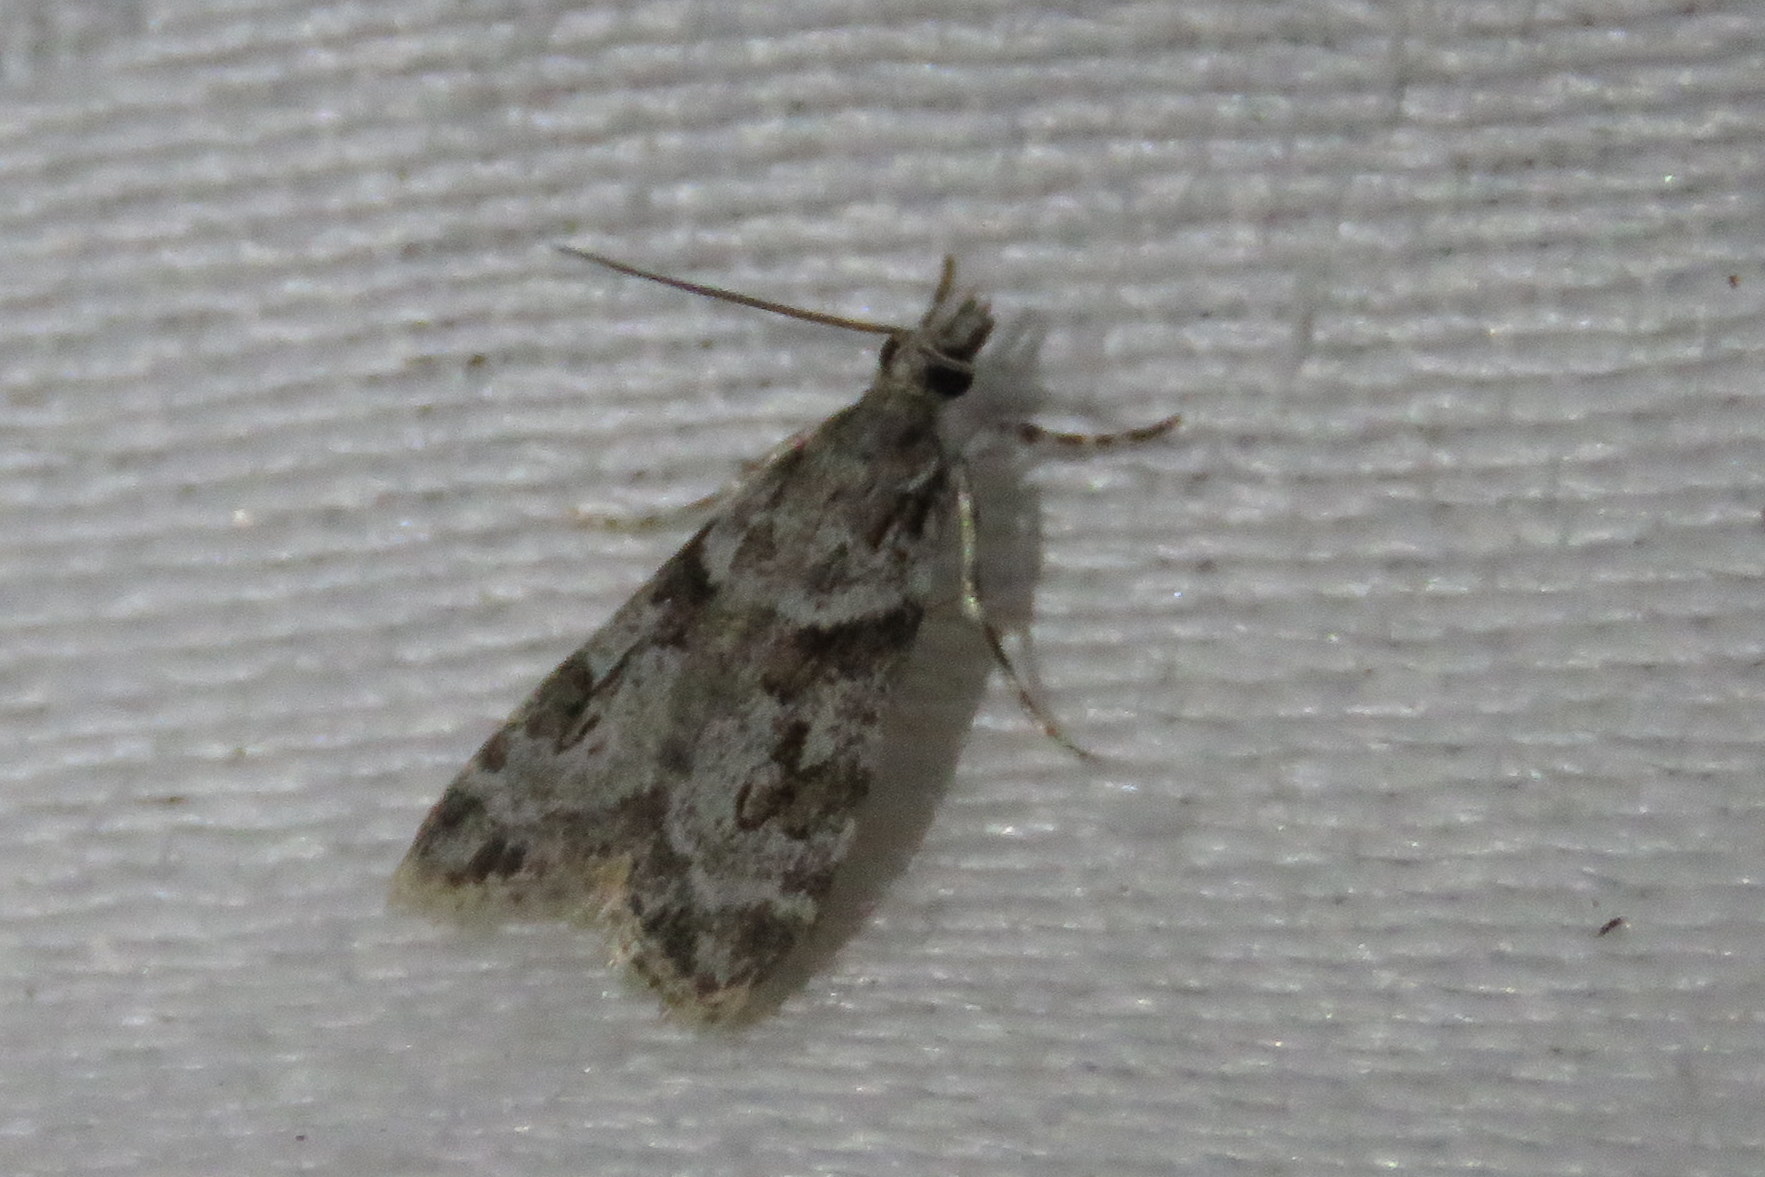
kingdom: Animalia
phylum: Arthropoda
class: Insecta
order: Lepidoptera
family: Crambidae
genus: Scoparia
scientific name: Scoparia biplagialis
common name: Double-striped scoparia moth
